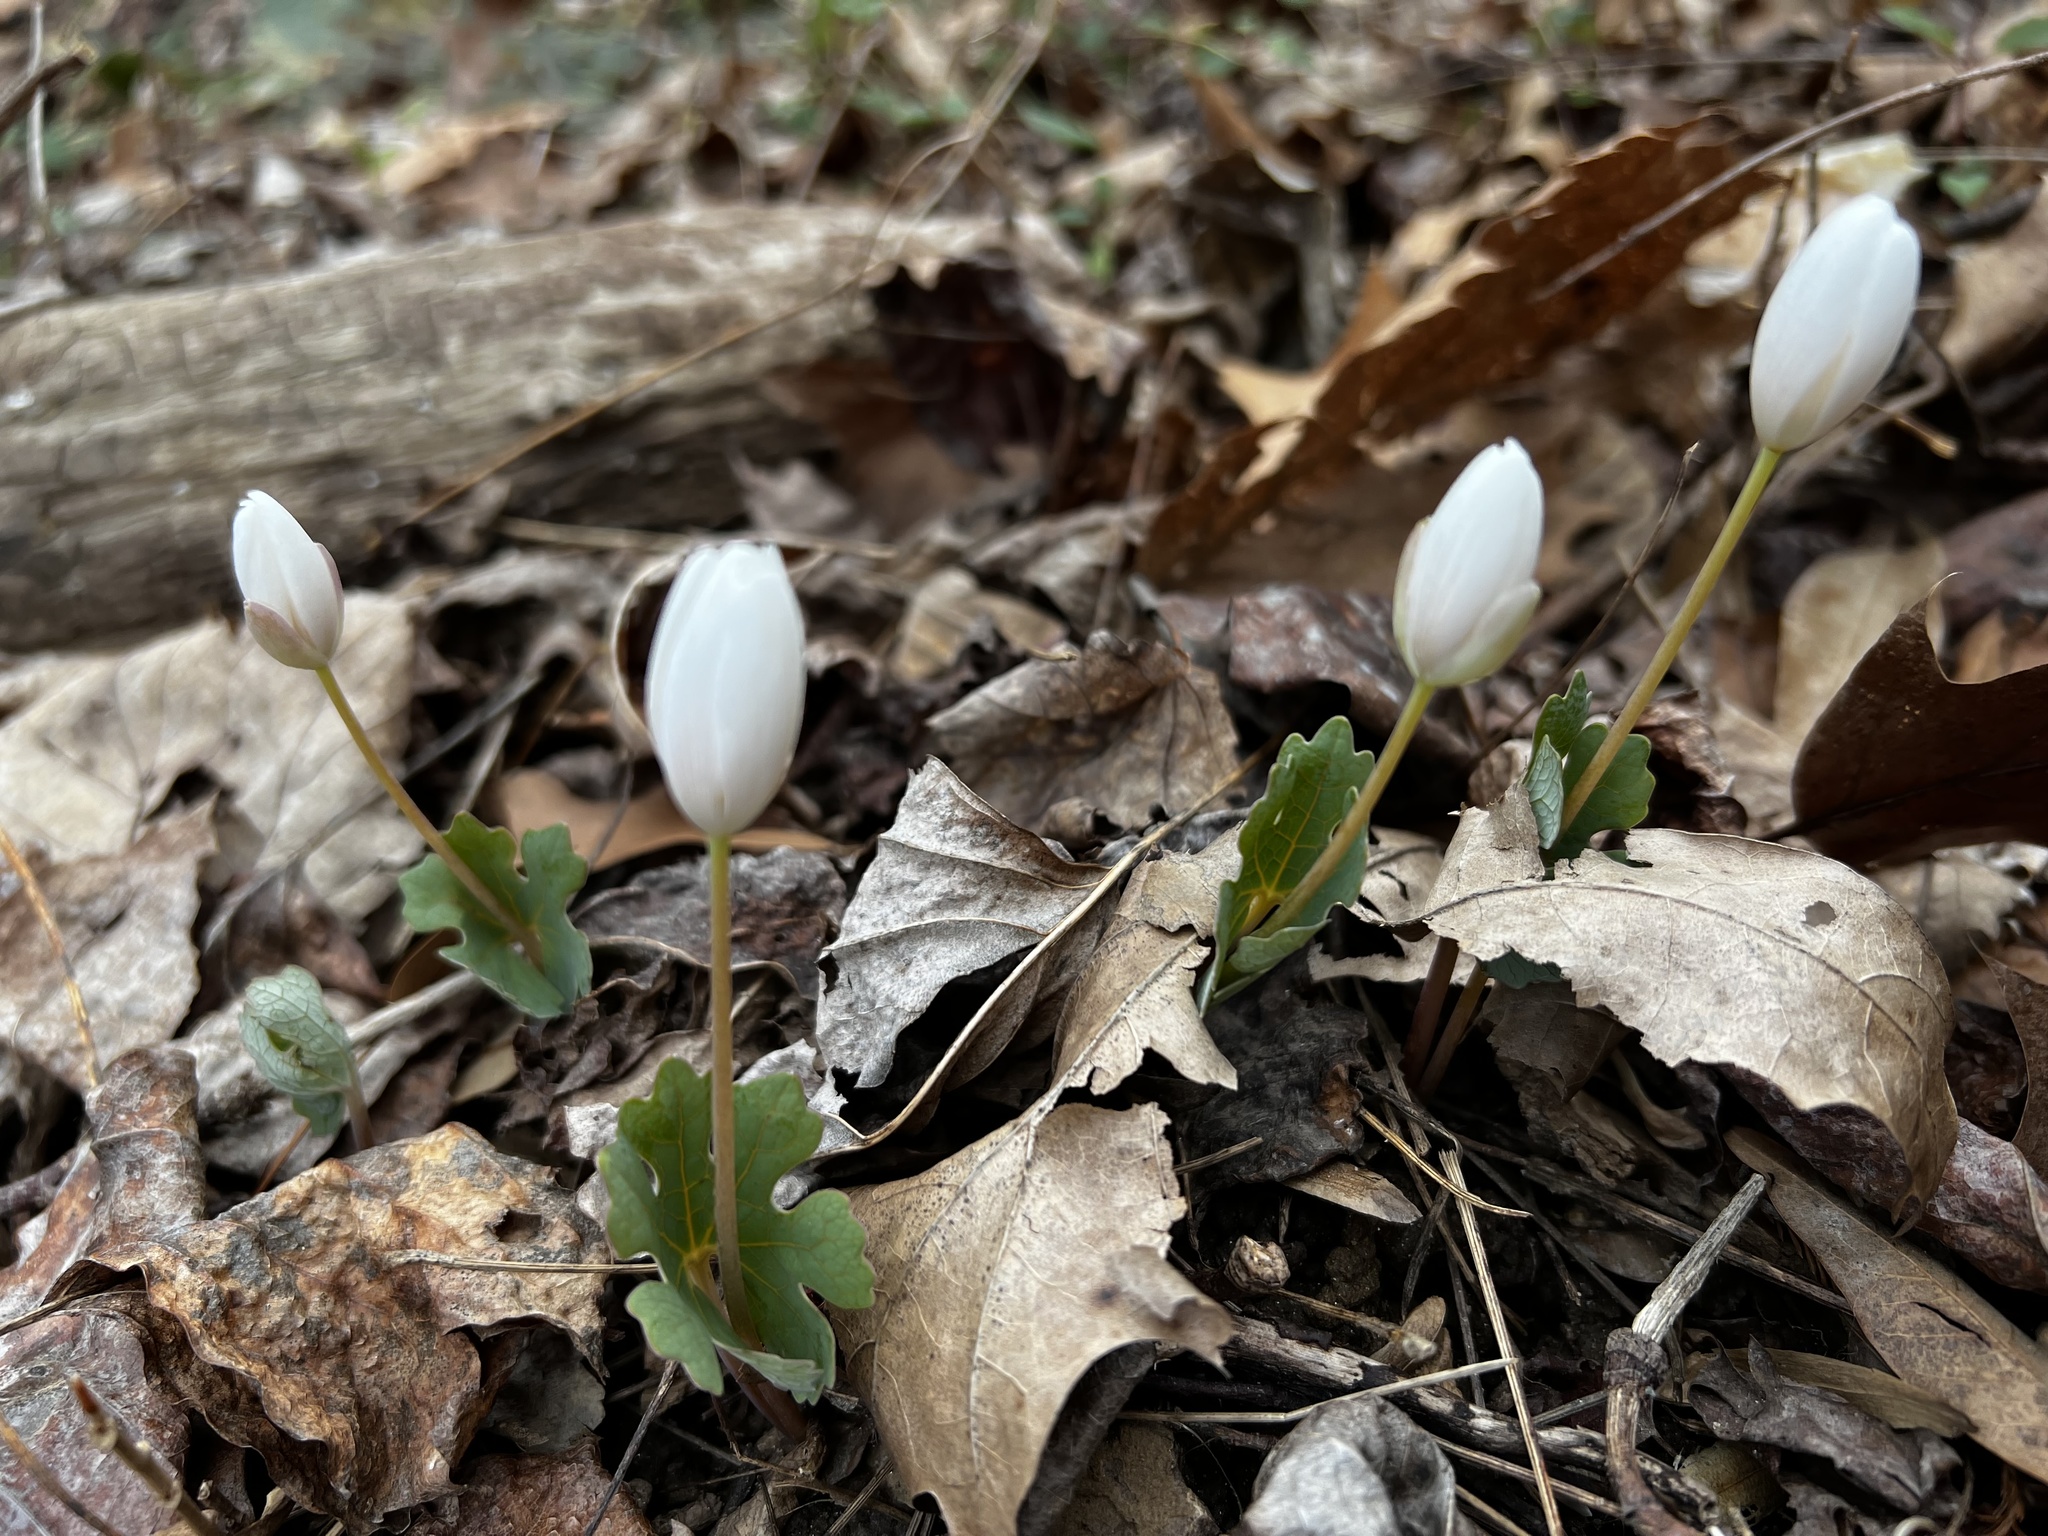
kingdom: Plantae
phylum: Tracheophyta
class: Magnoliopsida
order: Ranunculales
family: Papaveraceae
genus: Sanguinaria
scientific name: Sanguinaria canadensis
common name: Bloodroot
